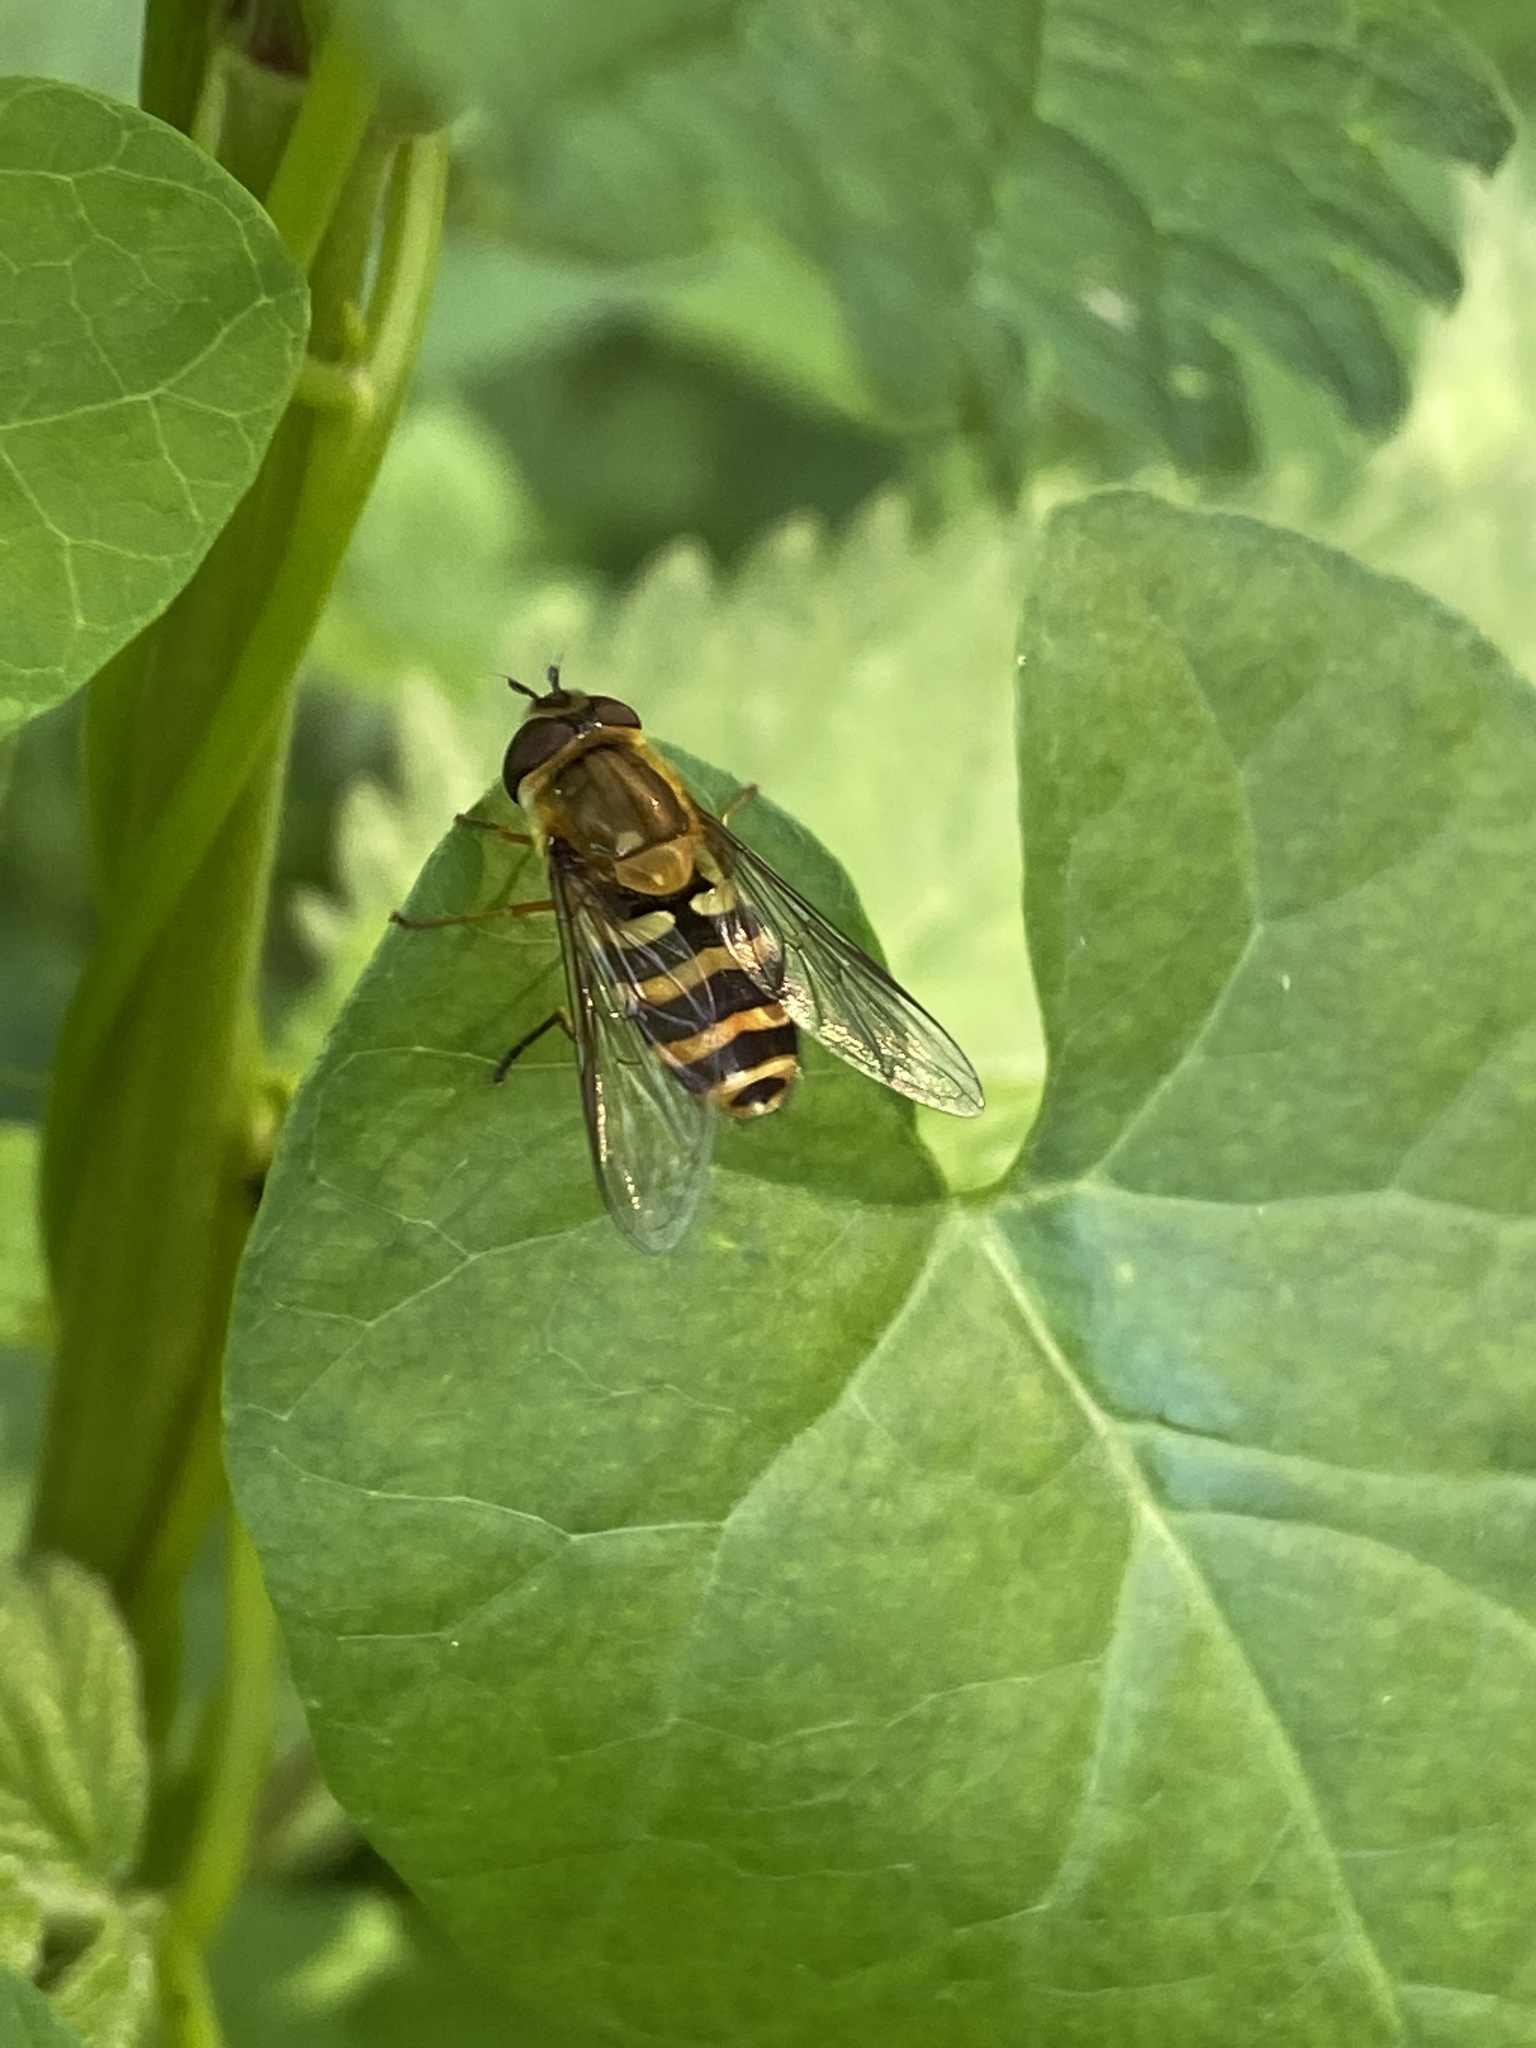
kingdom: Animalia
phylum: Arthropoda
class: Insecta
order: Diptera
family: Syrphidae
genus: Syrphus
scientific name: Syrphus
